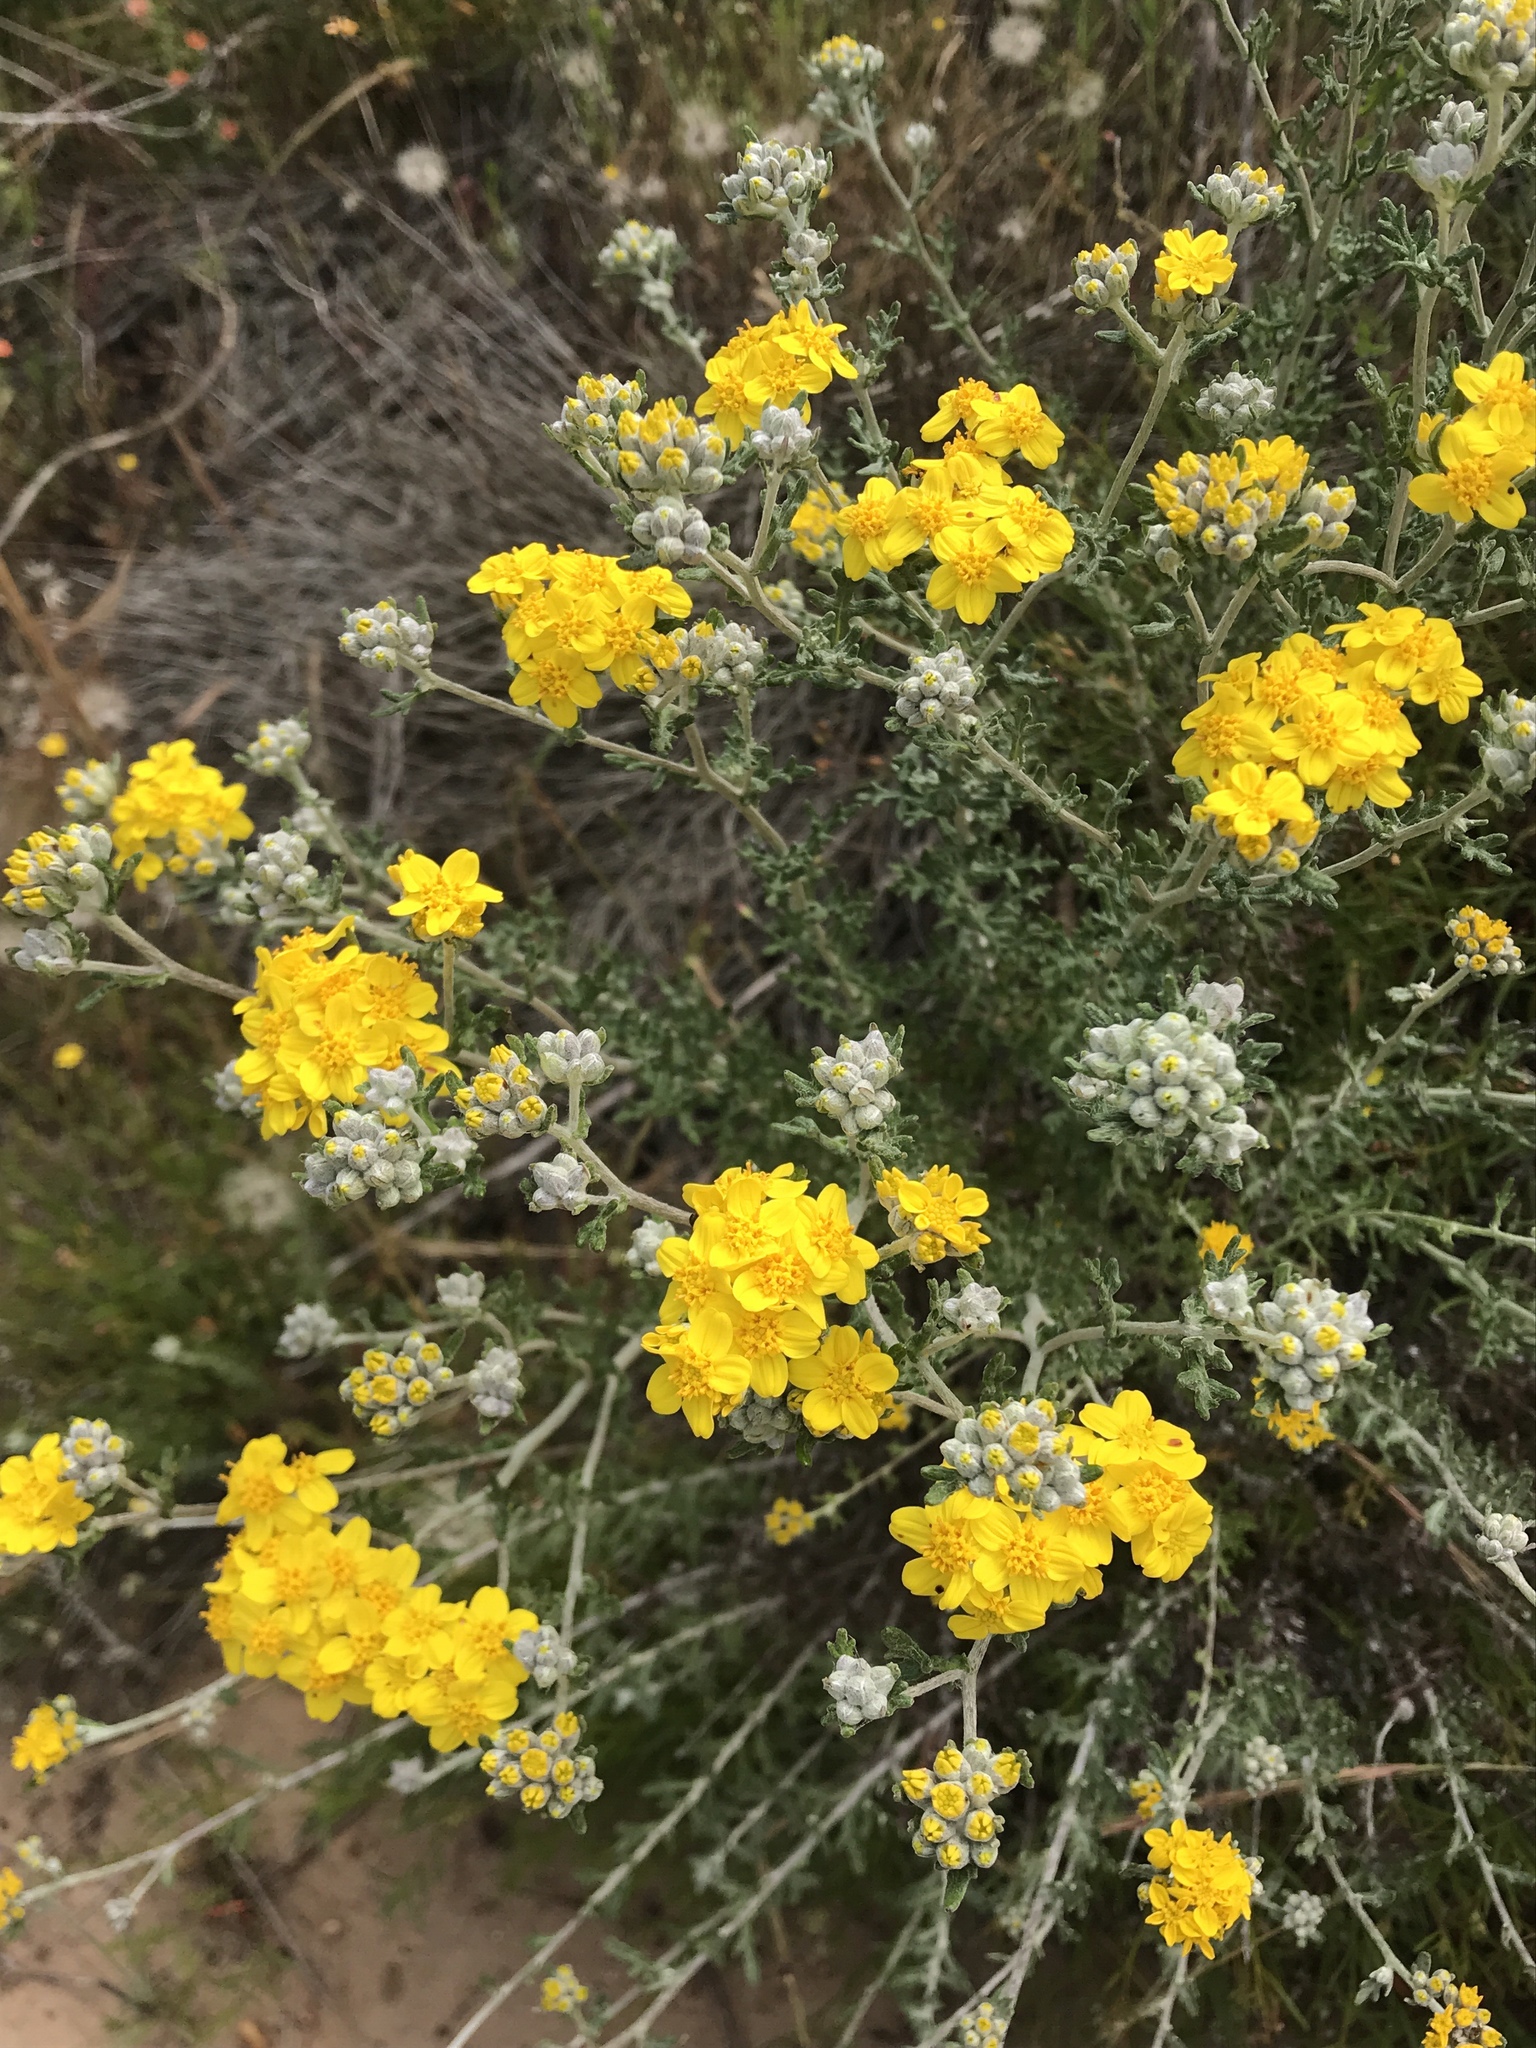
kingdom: Plantae
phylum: Tracheophyta
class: Magnoliopsida
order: Asterales
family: Asteraceae
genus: Eriophyllum
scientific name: Eriophyllum confertiflorum
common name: Golden-yarrow
